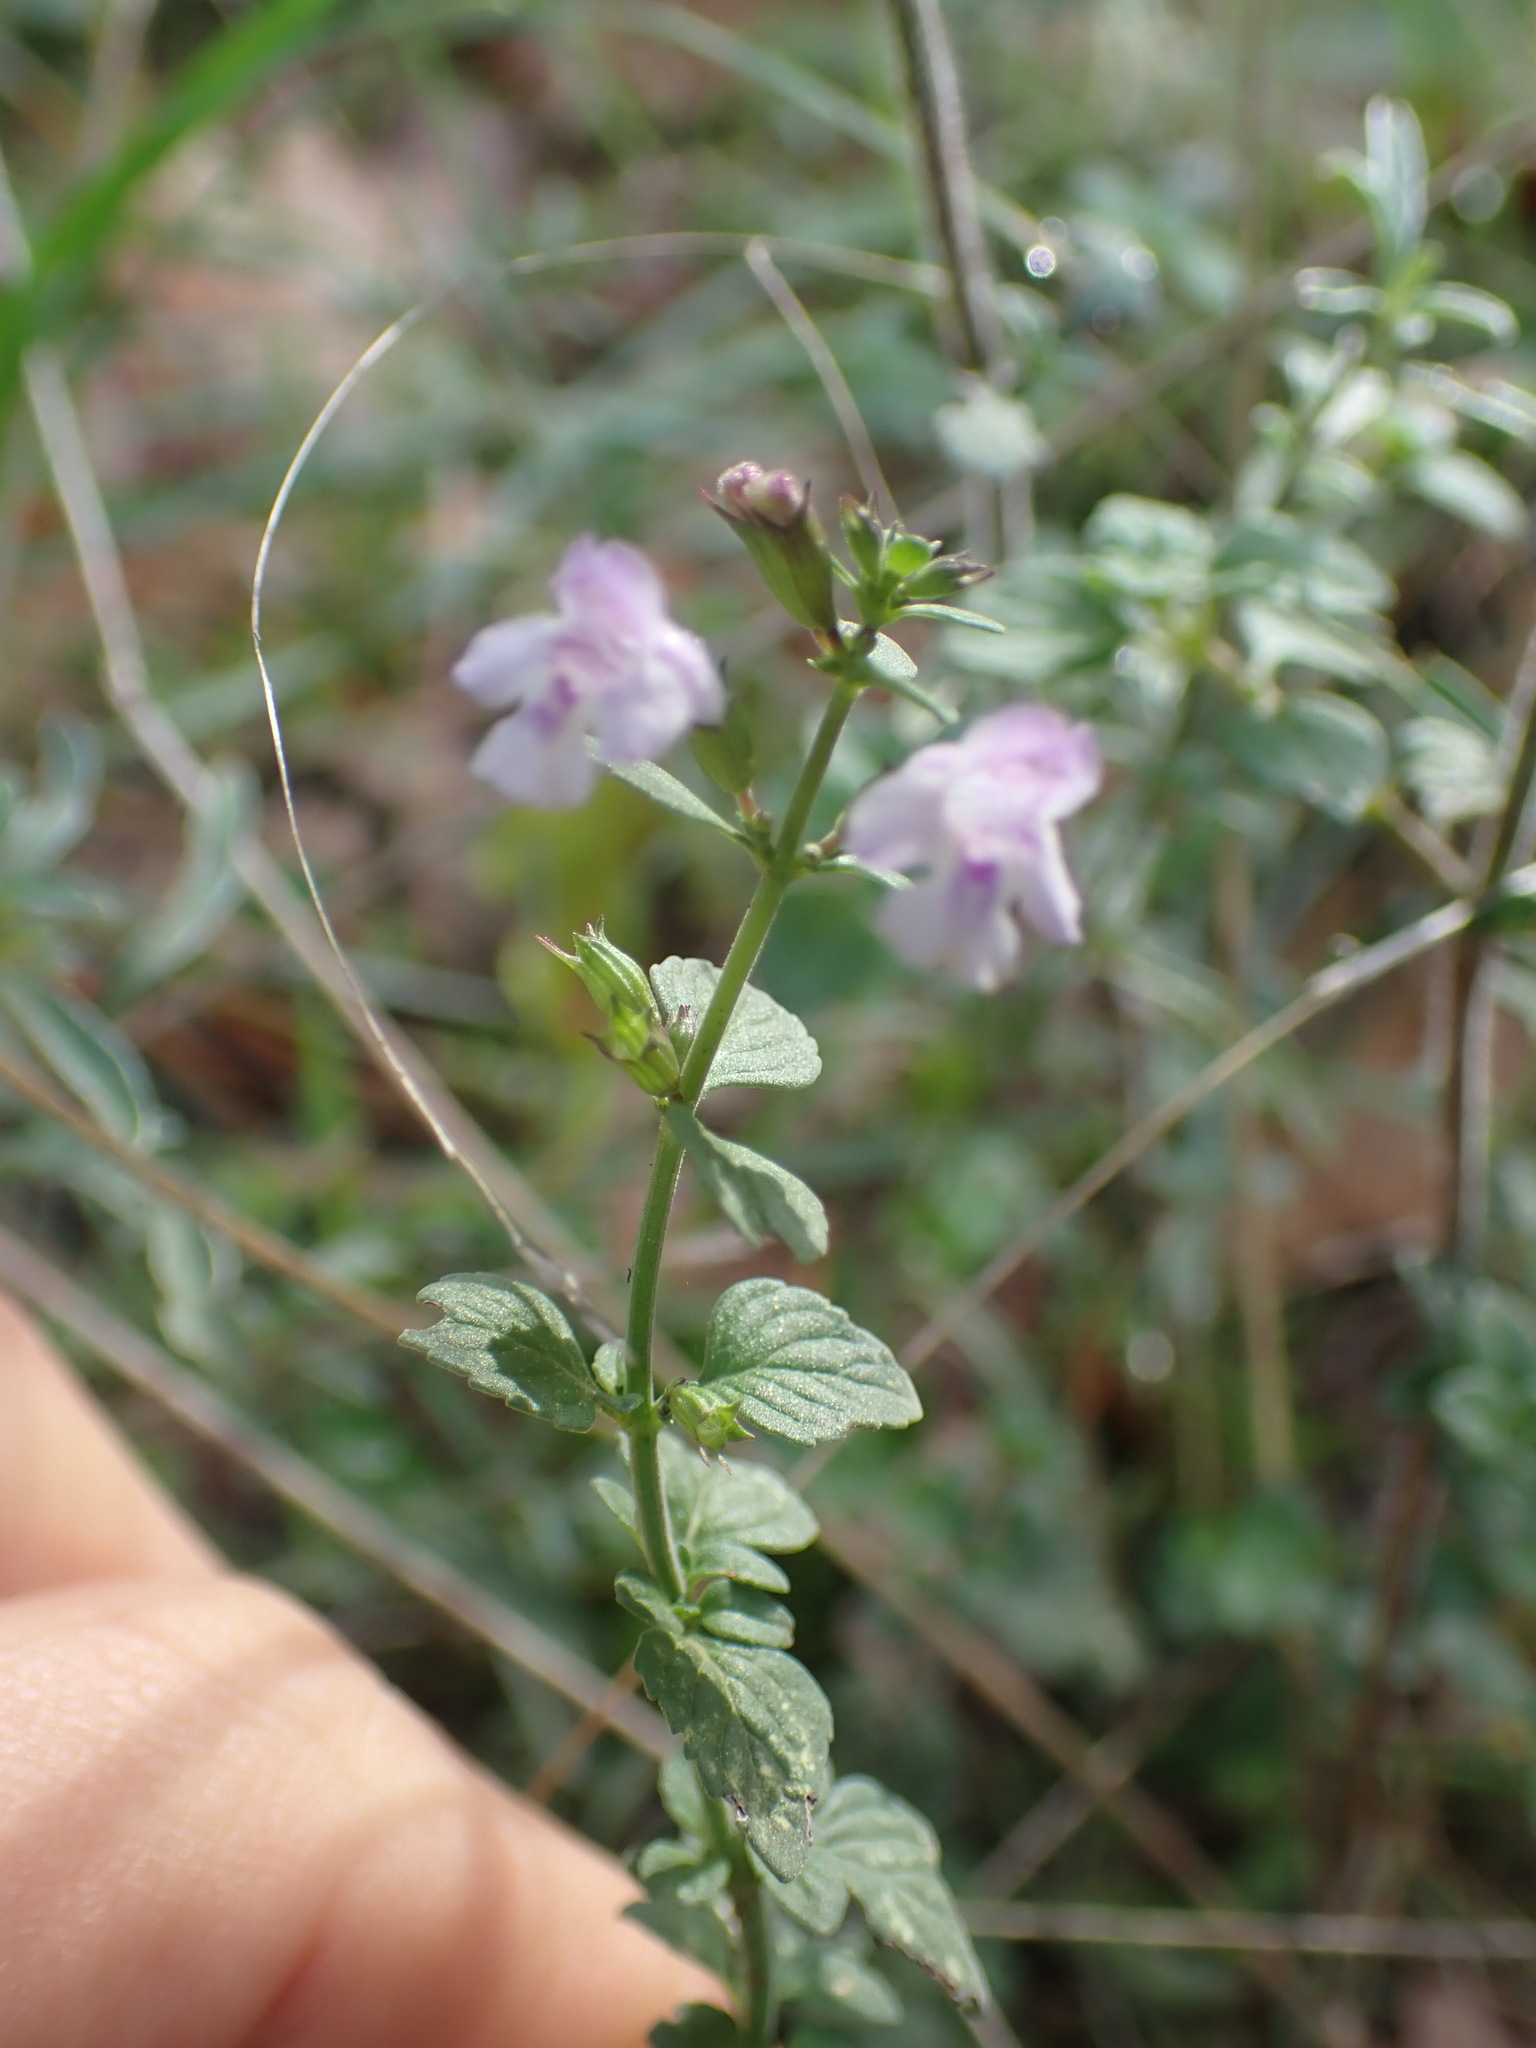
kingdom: Plantae
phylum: Tracheophyta
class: Magnoliopsida
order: Lamiales
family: Lamiaceae
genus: Clinopodium
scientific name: Clinopodium nepeta
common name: Lesser calamint
